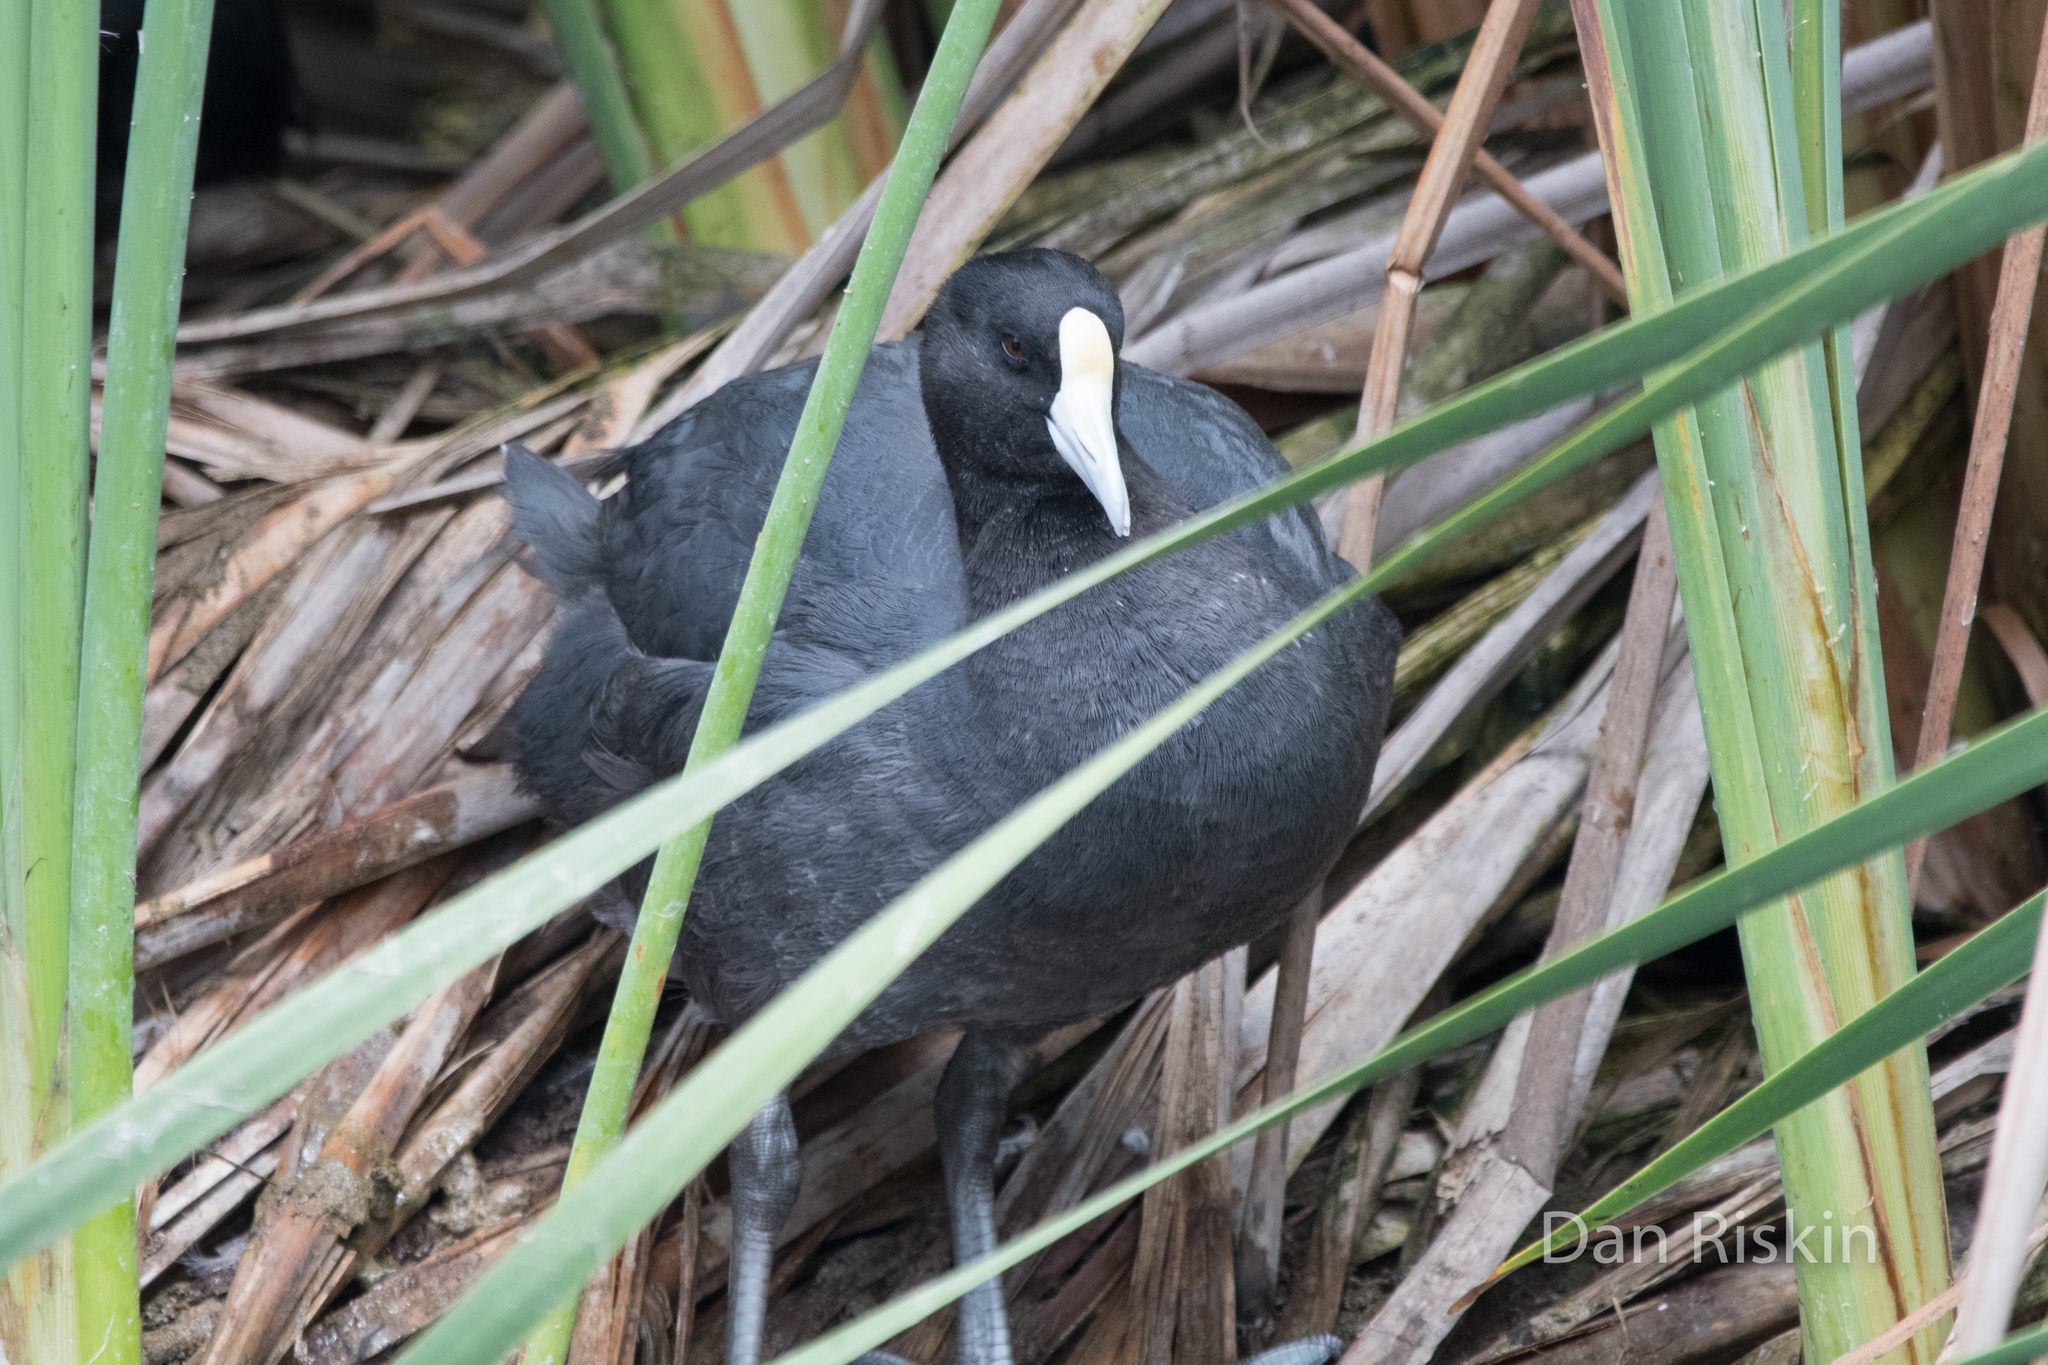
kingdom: Animalia
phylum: Chordata
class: Aves
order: Gruiformes
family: Rallidae
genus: Fulica
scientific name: Fulica ardesiaca
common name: Andean coot
